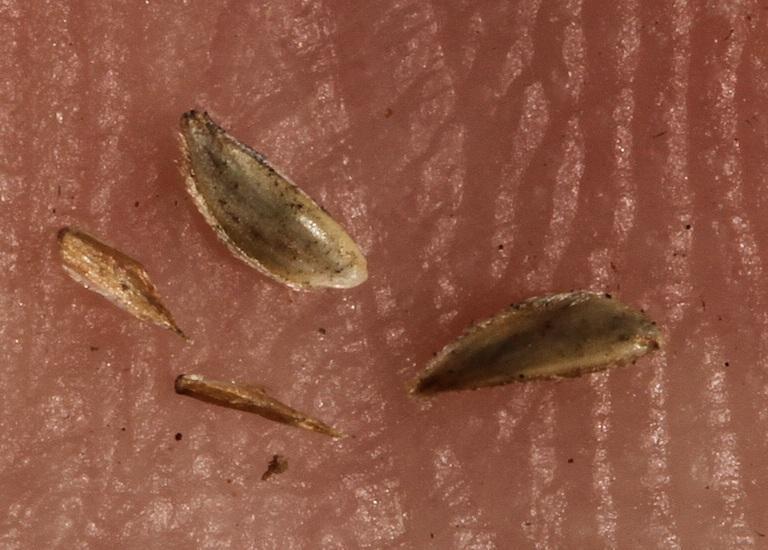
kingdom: Plantae
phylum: Tracheophyta
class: Liliopsida
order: Poales
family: Poaceae
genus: Cynodon
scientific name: Cynodon dactylon
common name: Bermuda grass
